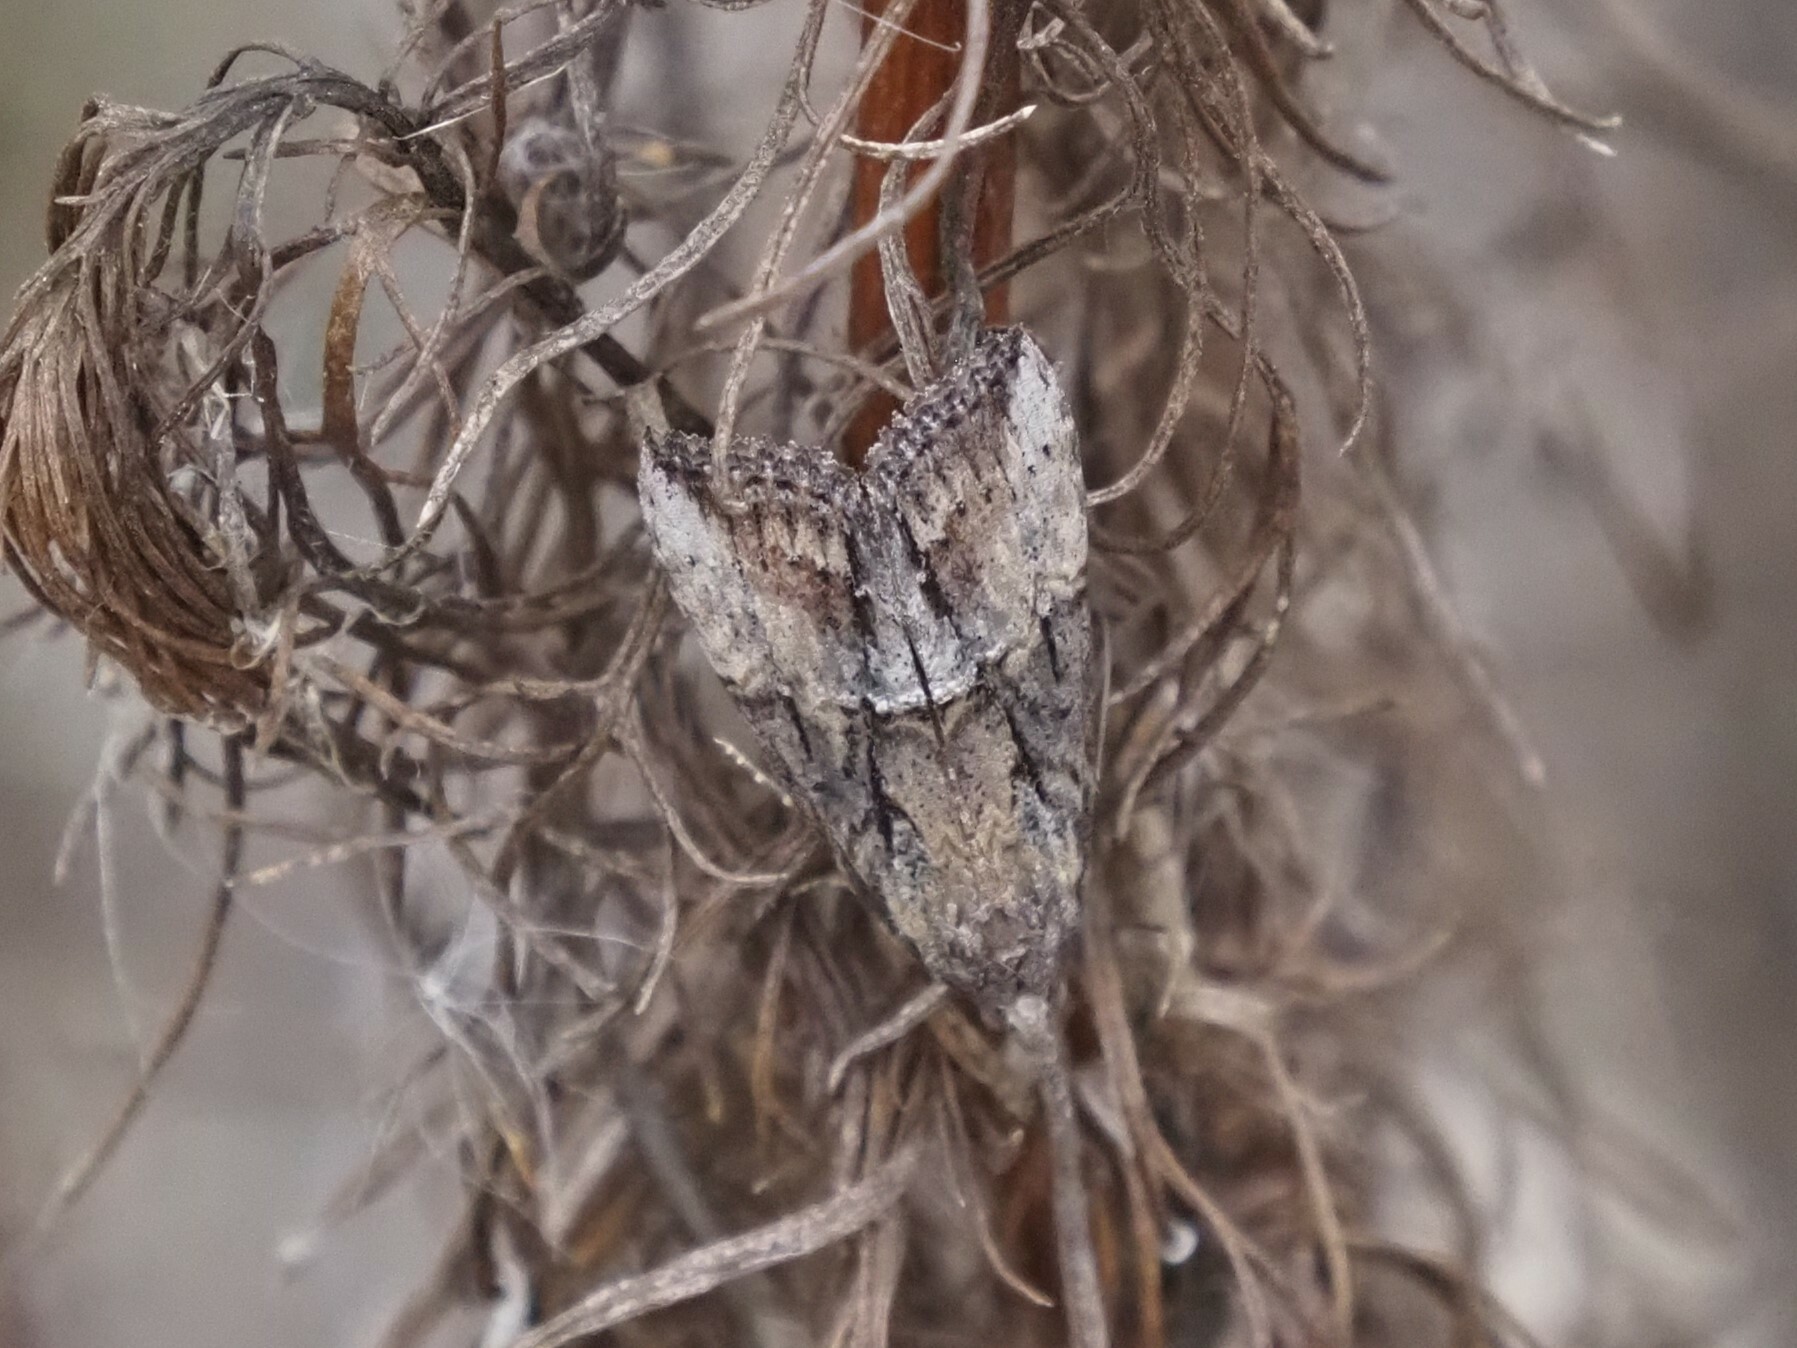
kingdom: Animalia
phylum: Arthropoda
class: Insecta
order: Lepidoptera
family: Erebidae
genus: Hypena
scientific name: Hypena scabra
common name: Green cloverworm
